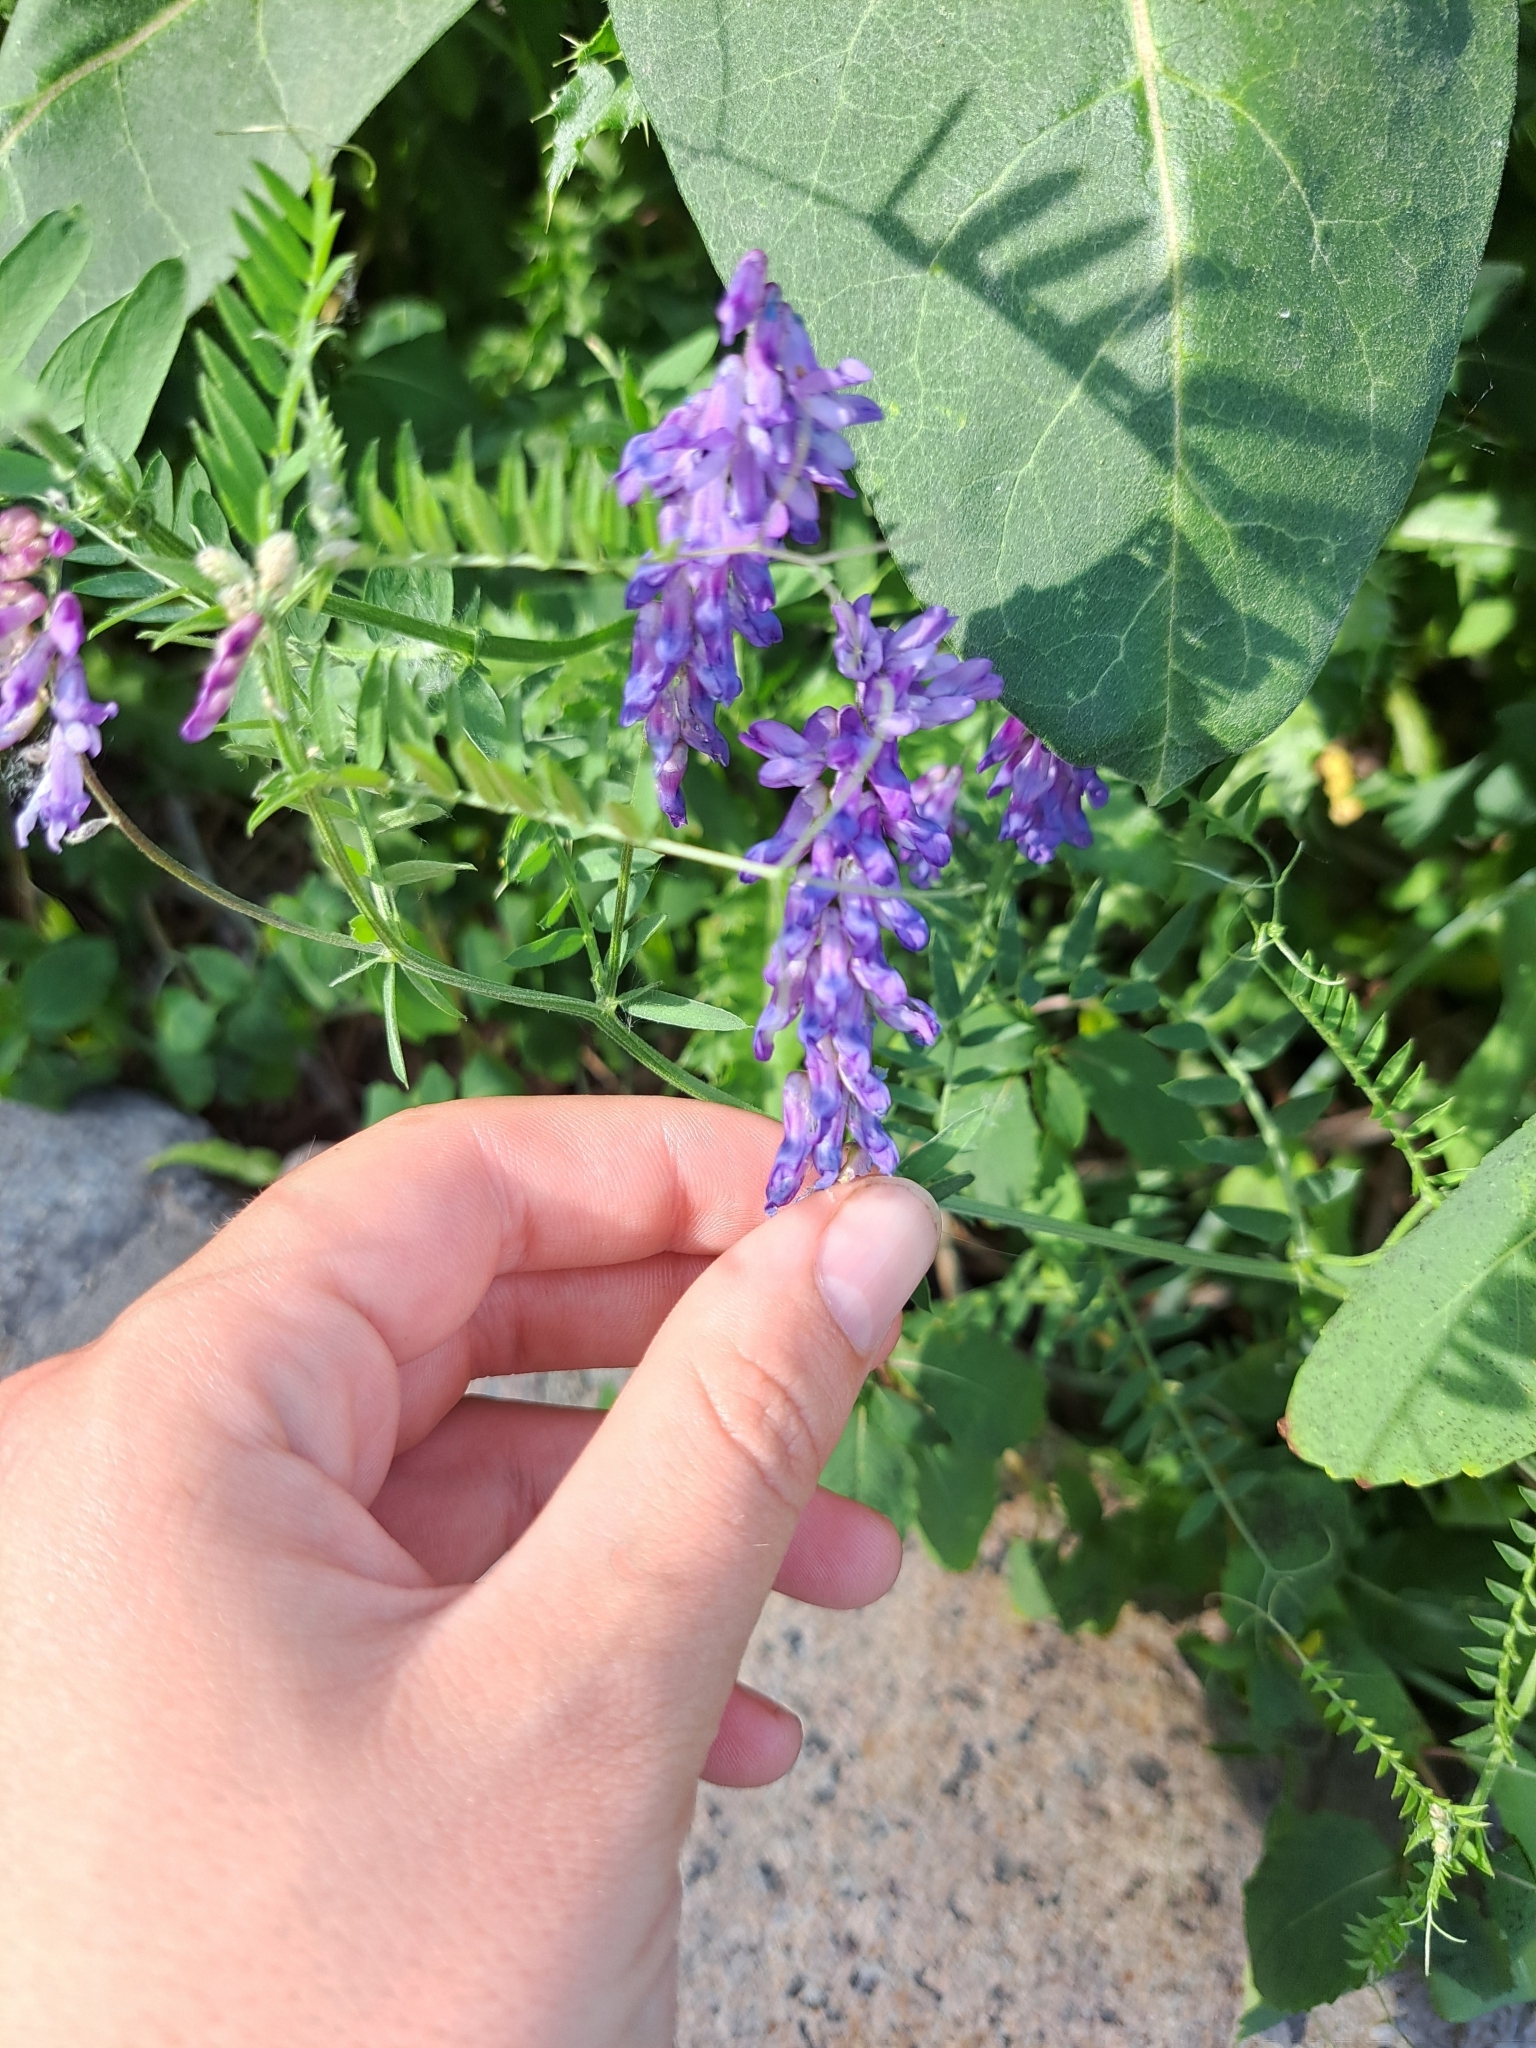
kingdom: Plantae
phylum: Tracheophyta
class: Magnoliopsida
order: Fabales
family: Fabaceae
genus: Vicia
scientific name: Vicia cracca
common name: Bird vetch
